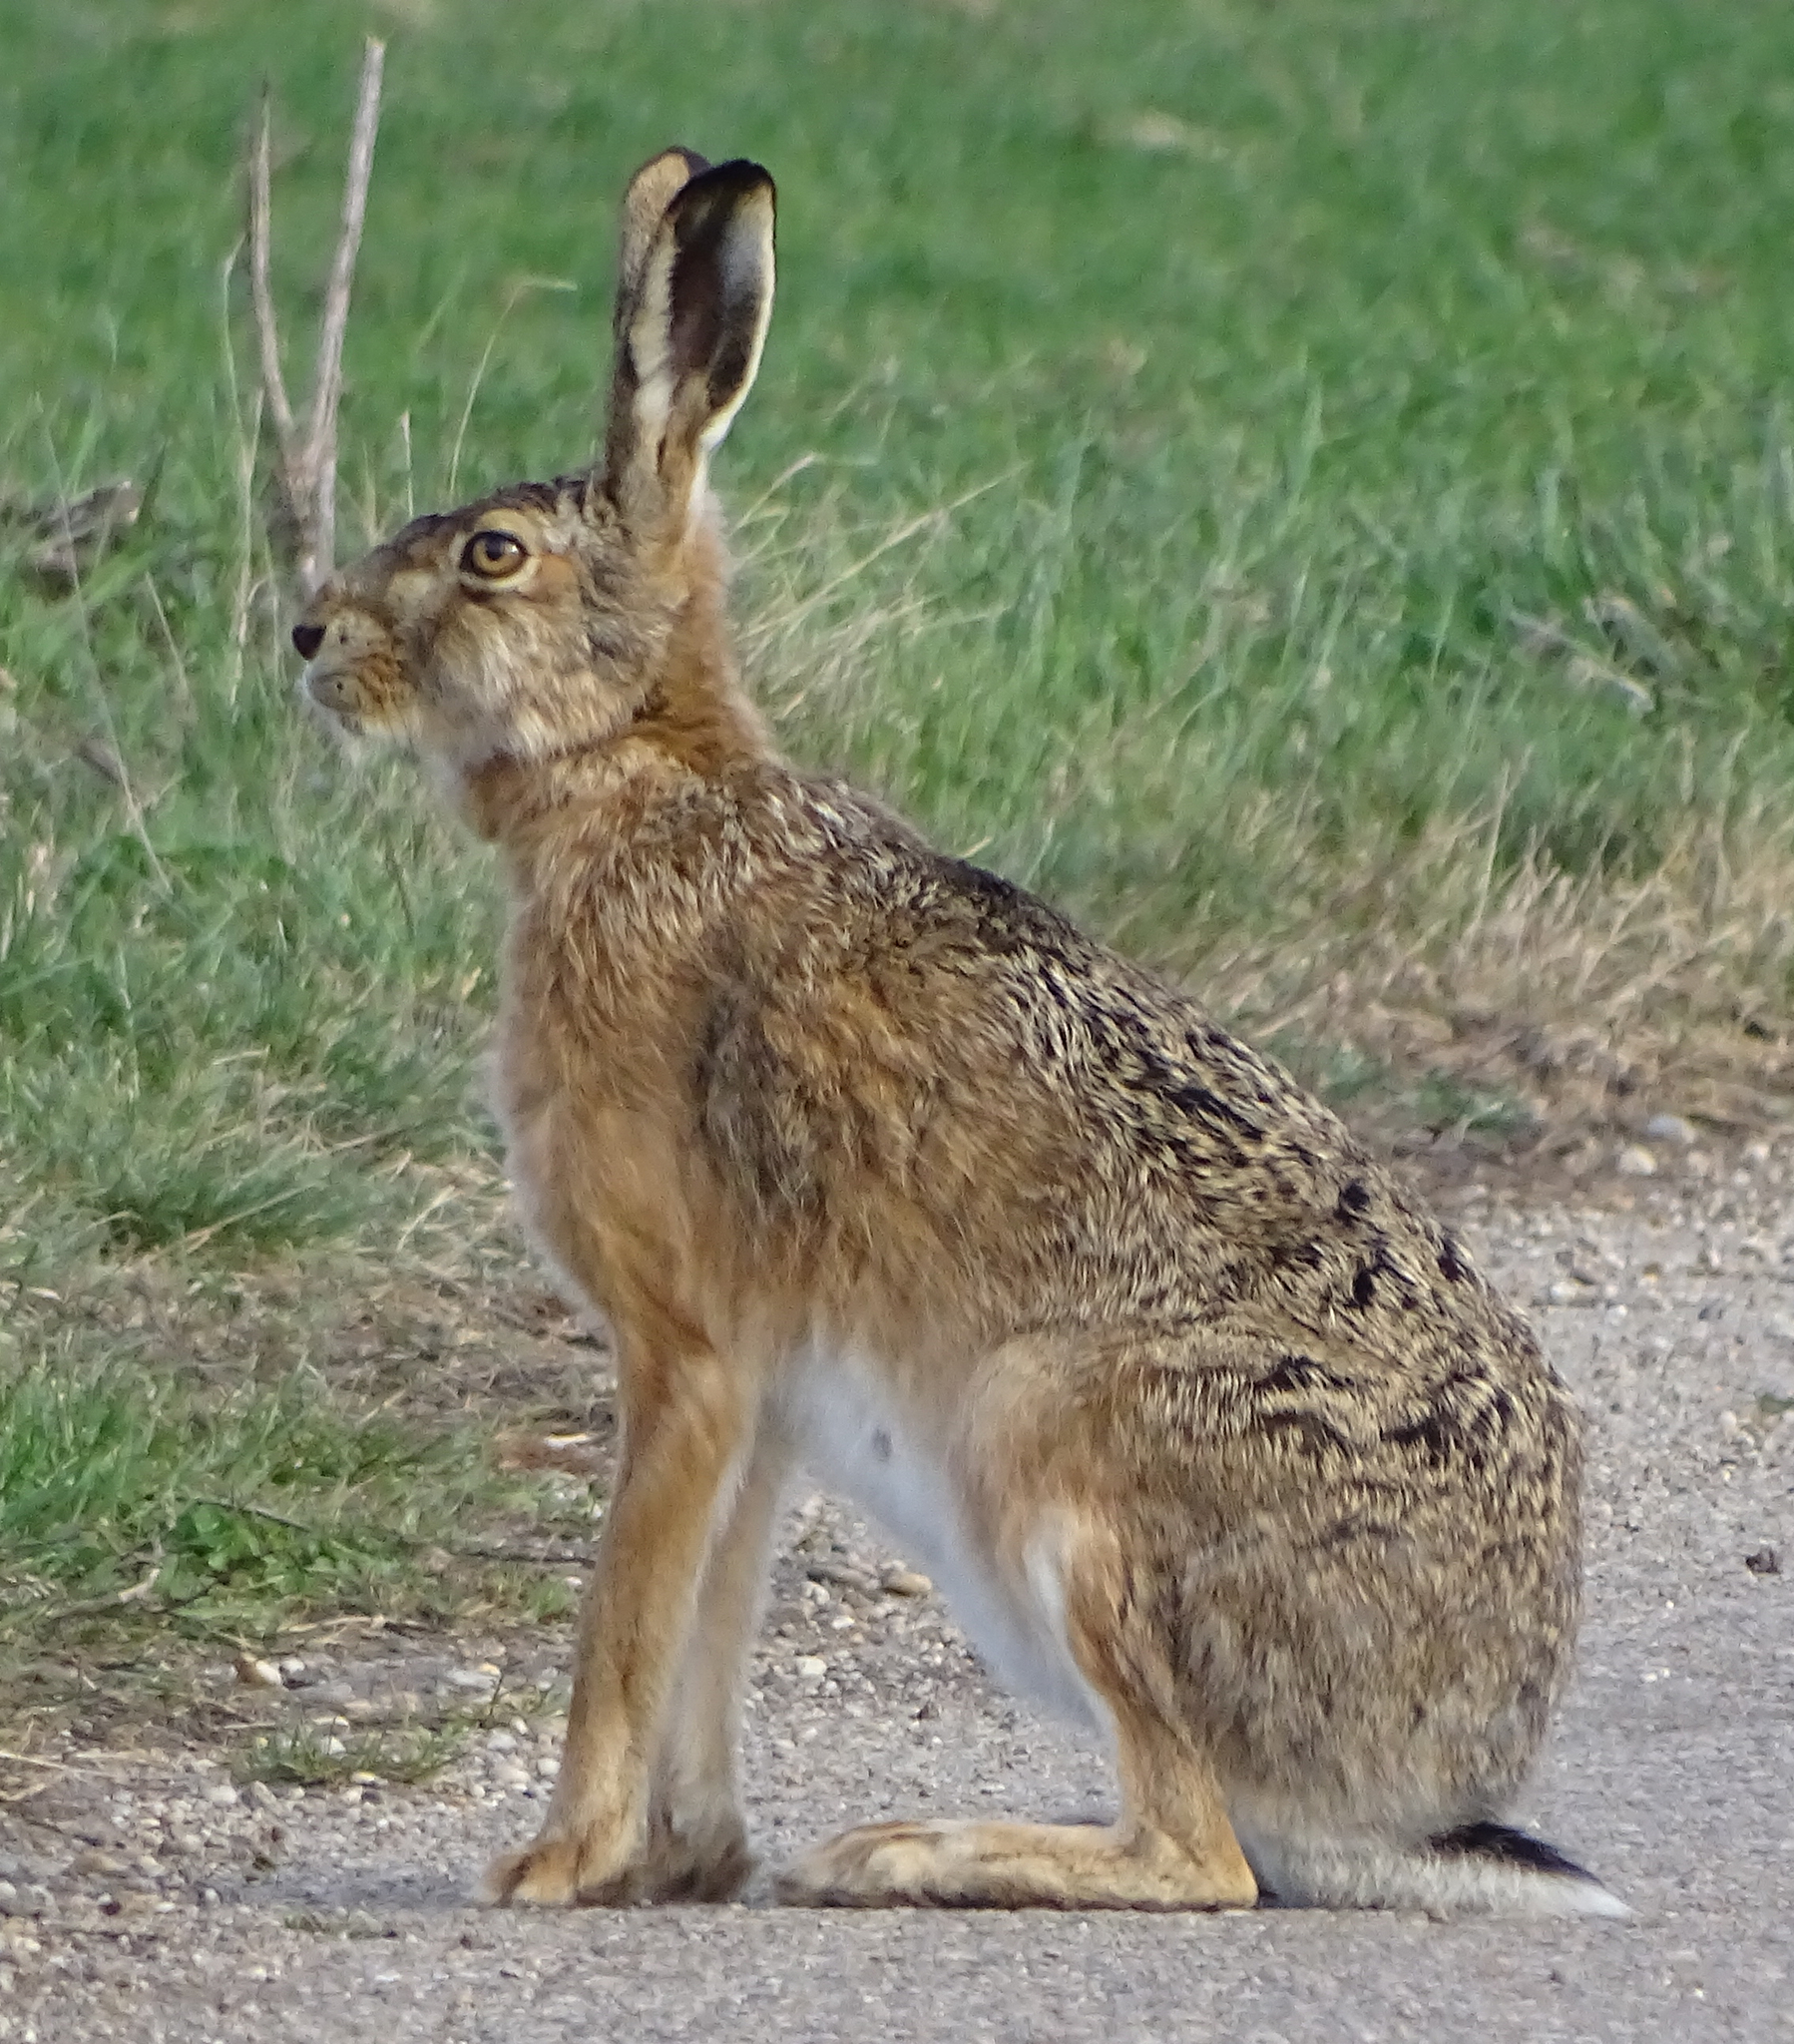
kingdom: Animalia
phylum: Chordata
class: Mammalia
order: Lagomorpha
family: Leporidae
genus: Lepus
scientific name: Lepus europaeus
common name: European hare
